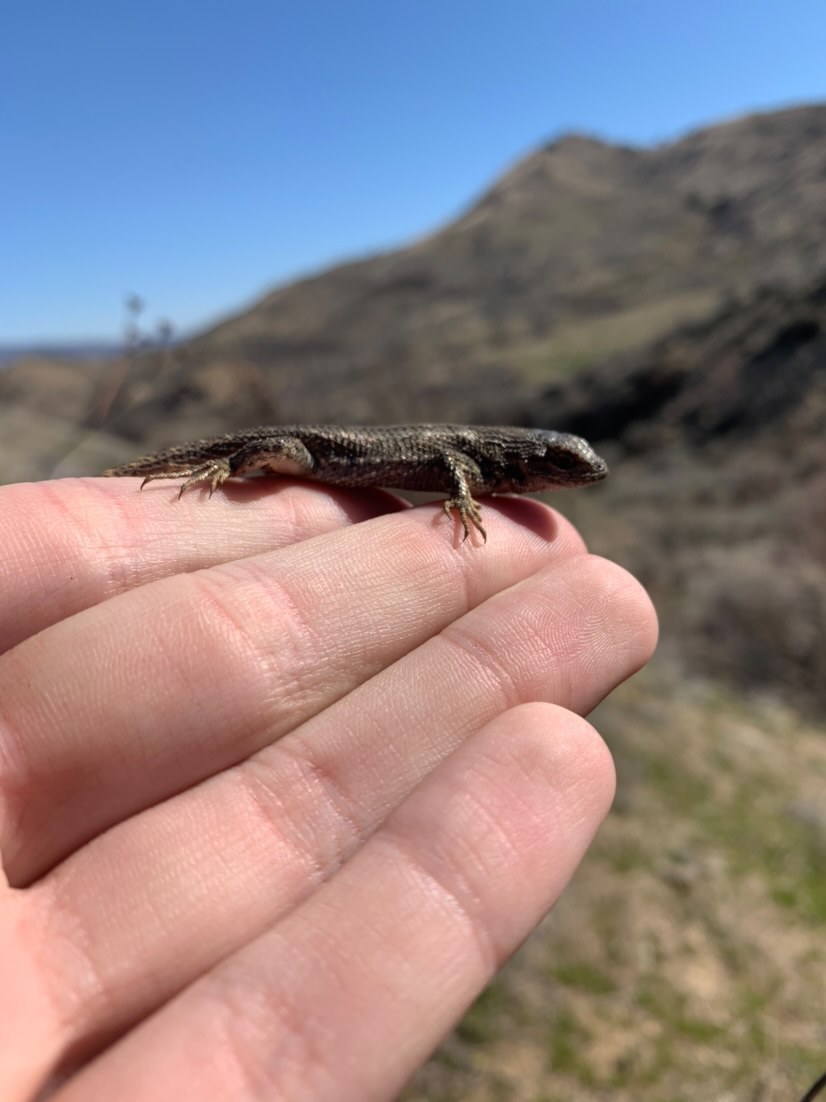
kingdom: Animalia
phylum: Chordata
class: Squamata
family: Phrynosomatidae
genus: Sceloporus
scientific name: Sceloporus occidentalis
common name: Western fence lizard
